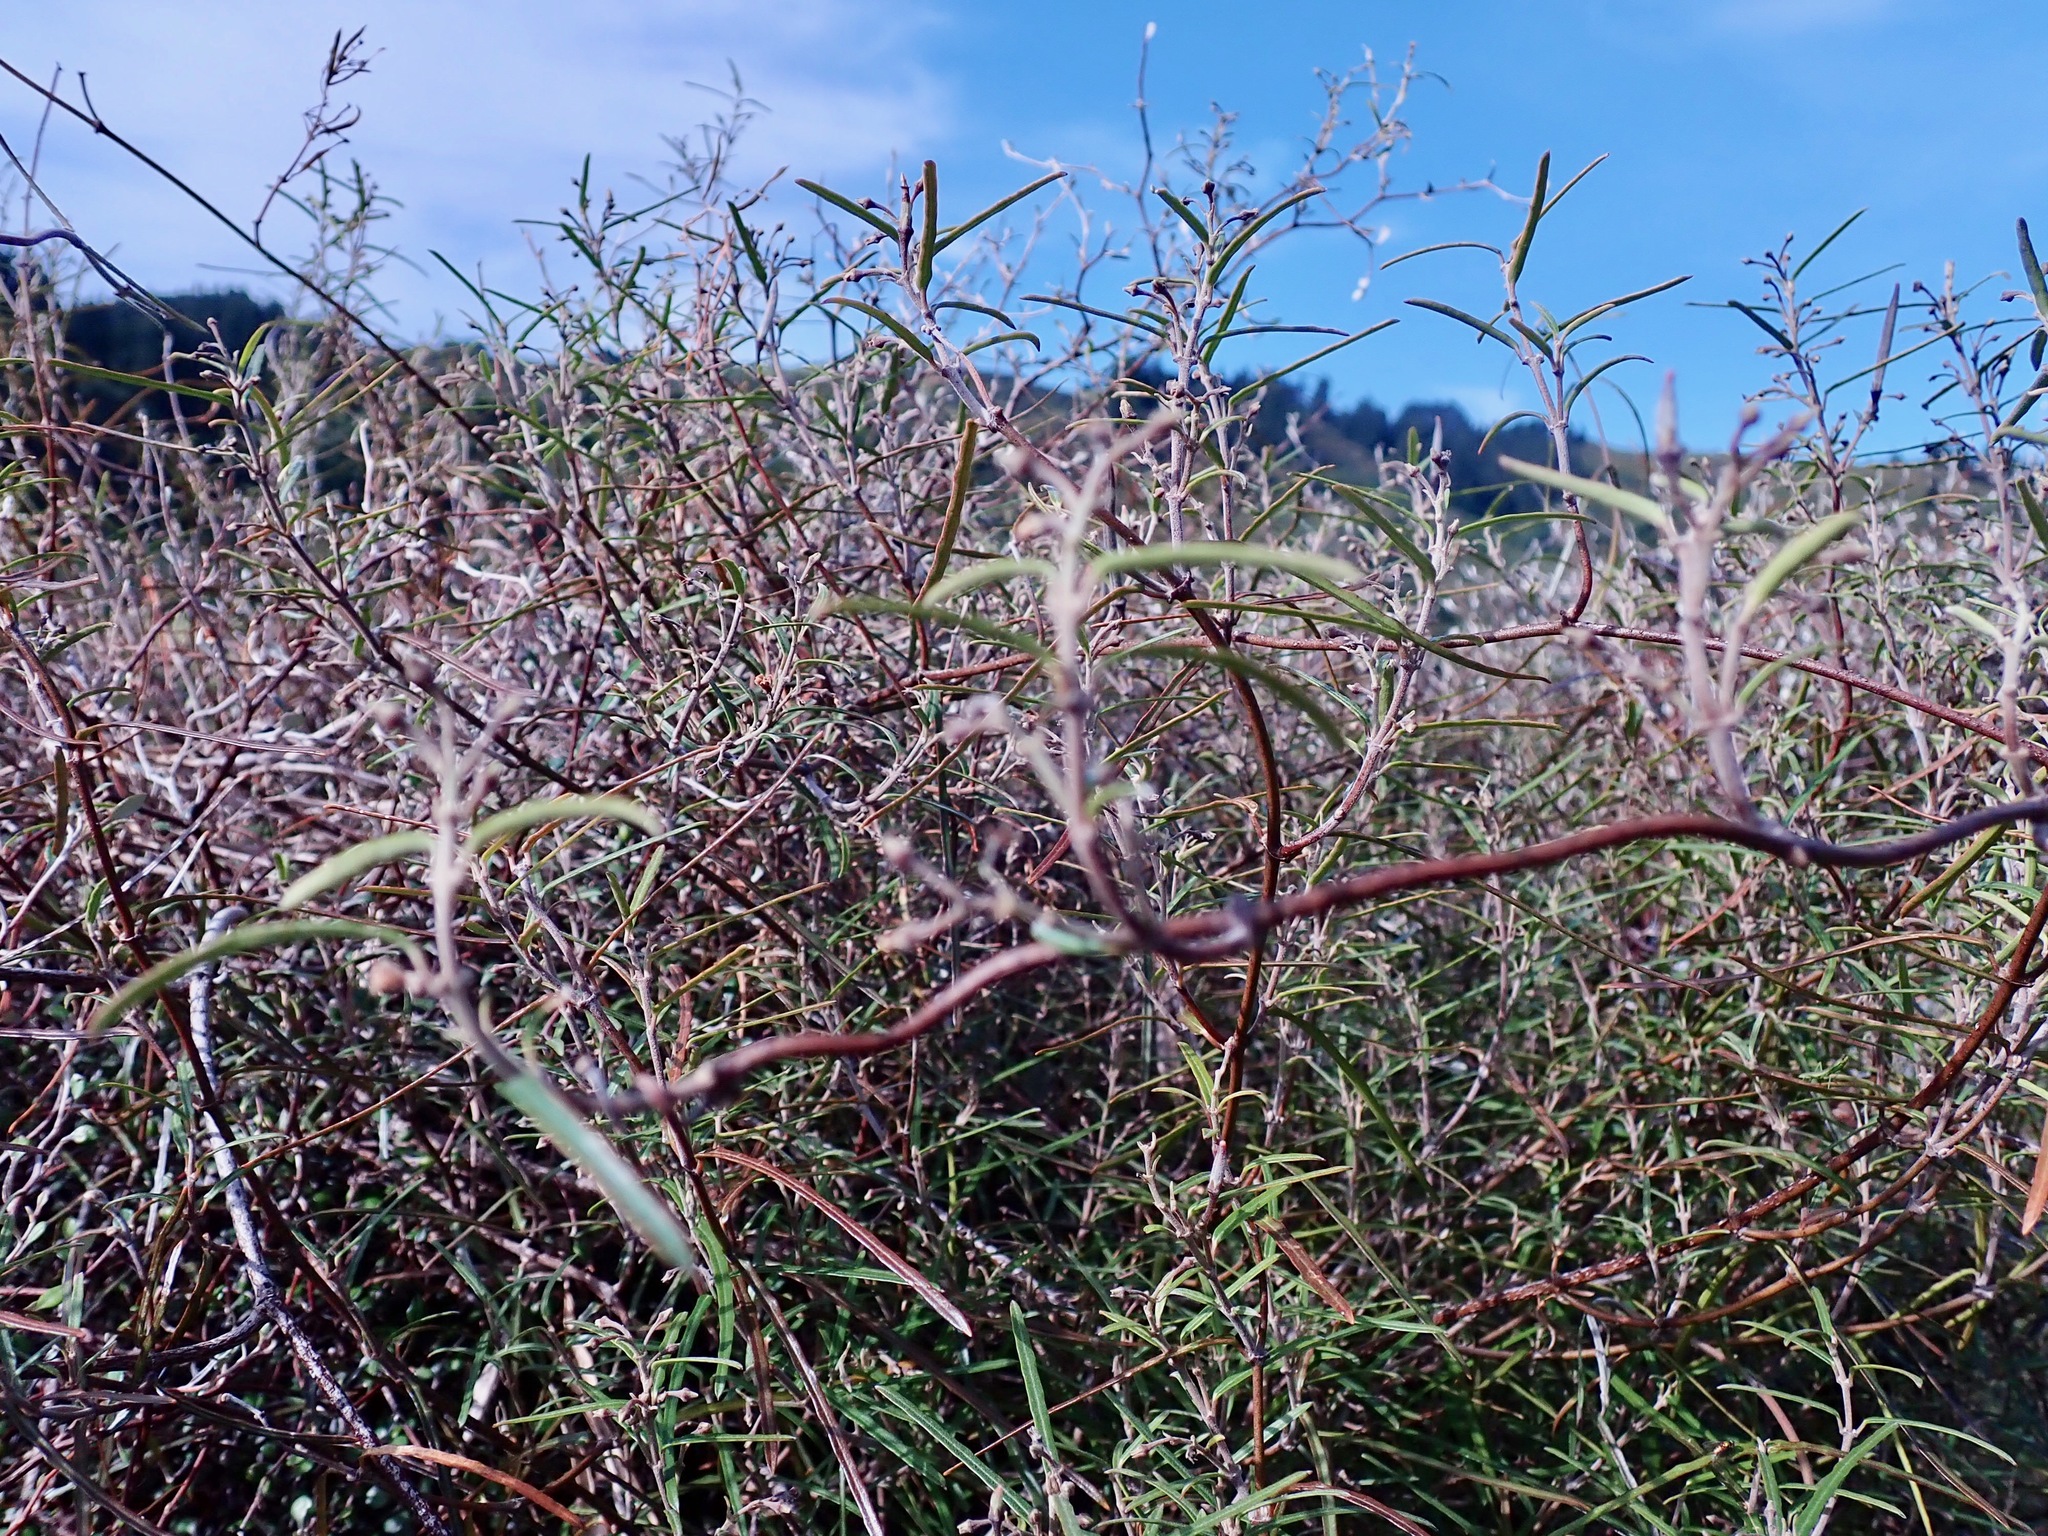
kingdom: Plantae
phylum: Tracheophyta
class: Magnoliopsida
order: Gentianales
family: Apocynaceae
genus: Parsonsia
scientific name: Parsonsia capsularis
